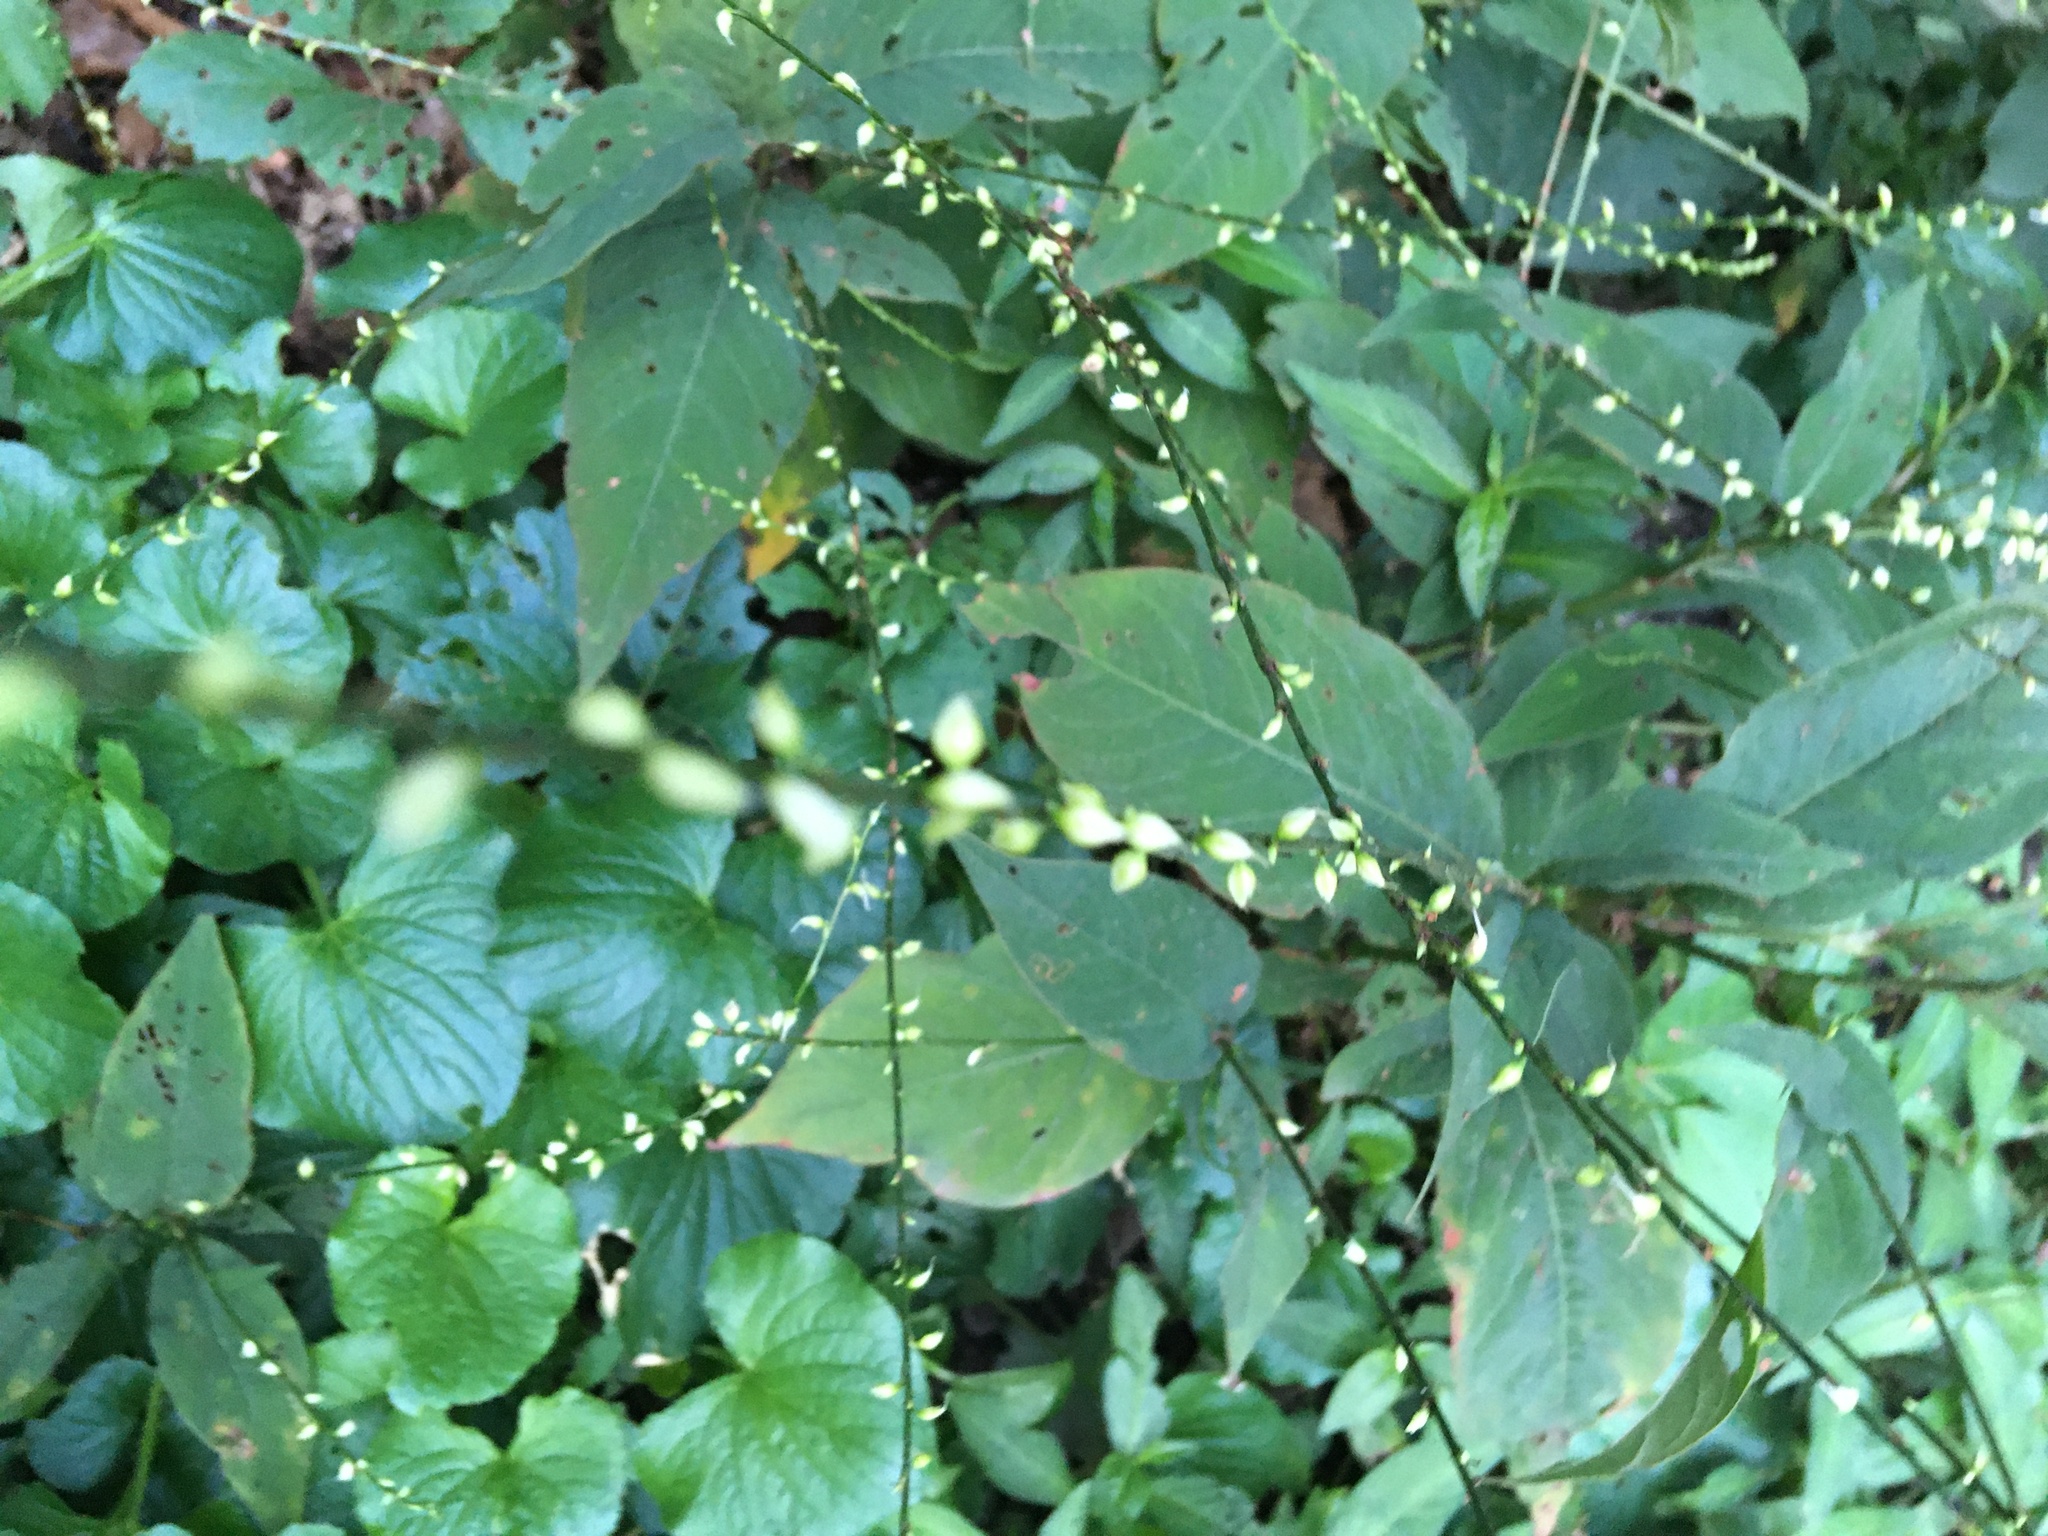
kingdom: Plantae
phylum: Tracheophyta
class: Magnoliopsida
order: Caryophyllales
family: Polygonaceae
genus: Persicaria
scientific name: Persicaria virginiana
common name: Jumpseed
